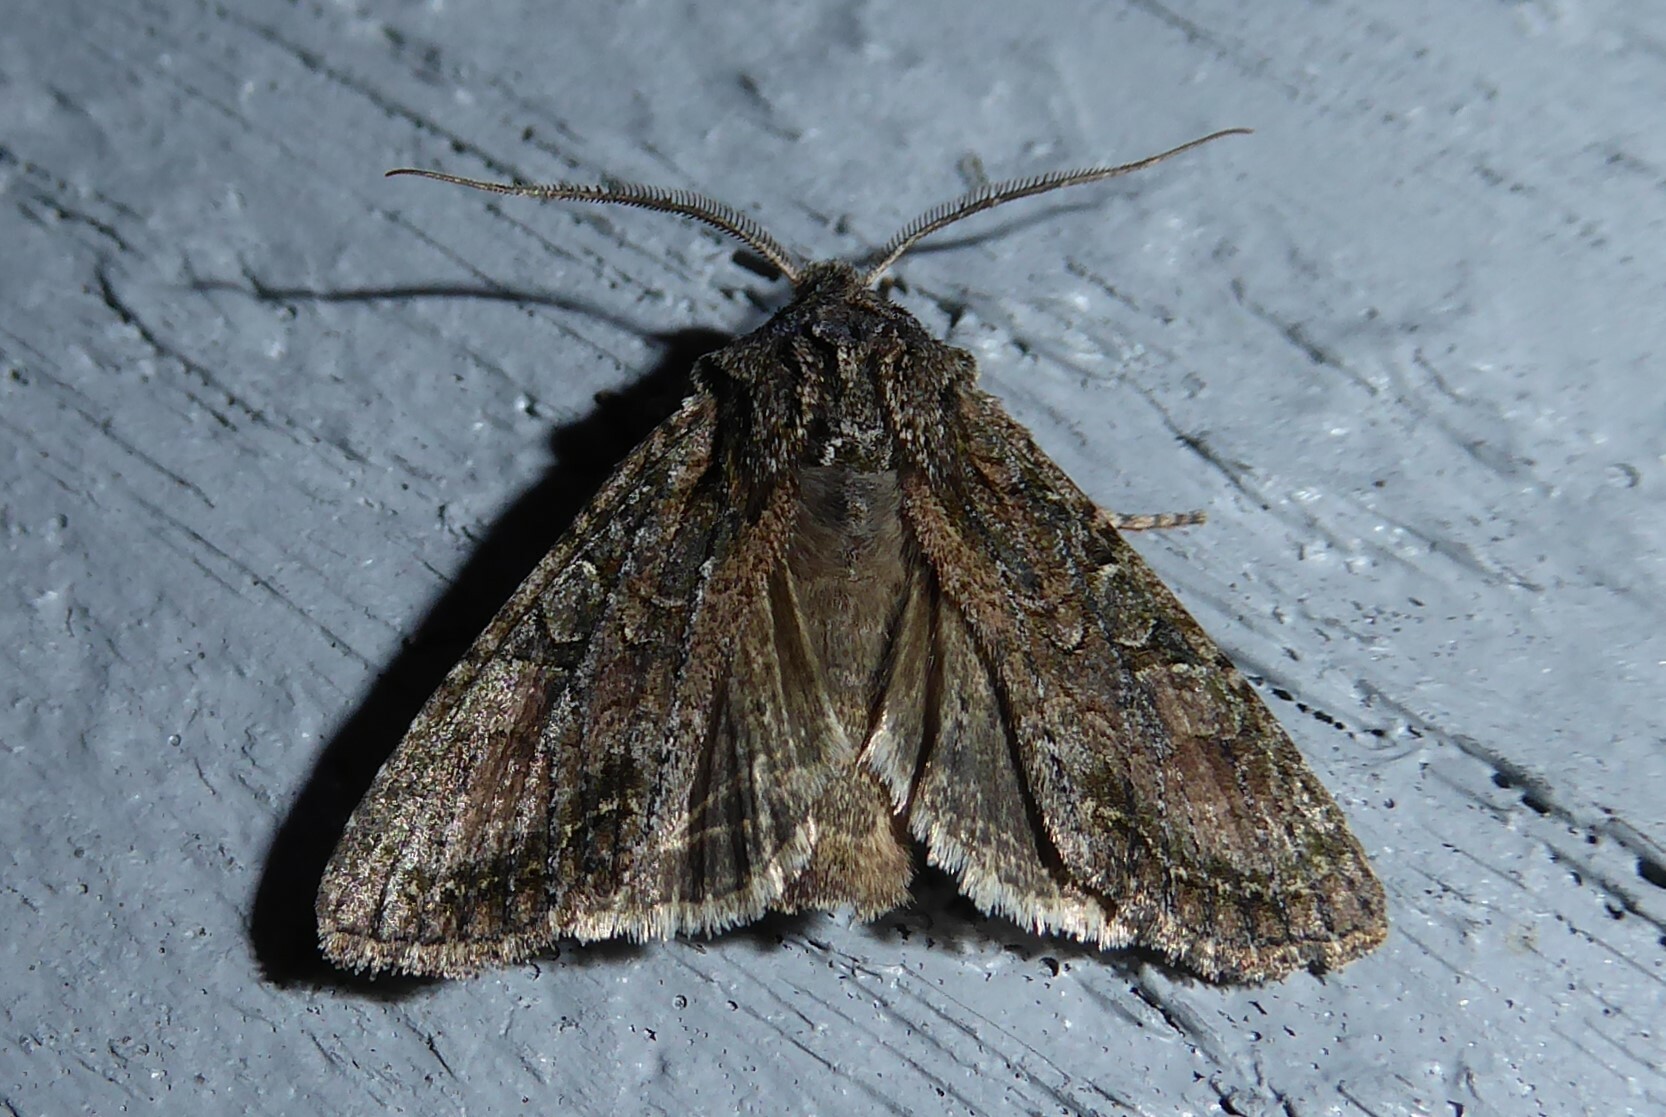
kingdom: Animalia
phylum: Arthropoda
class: Insecta
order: Lepidoptera
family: Noctuidae
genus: Ichneutica
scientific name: Ichneutica mutans
